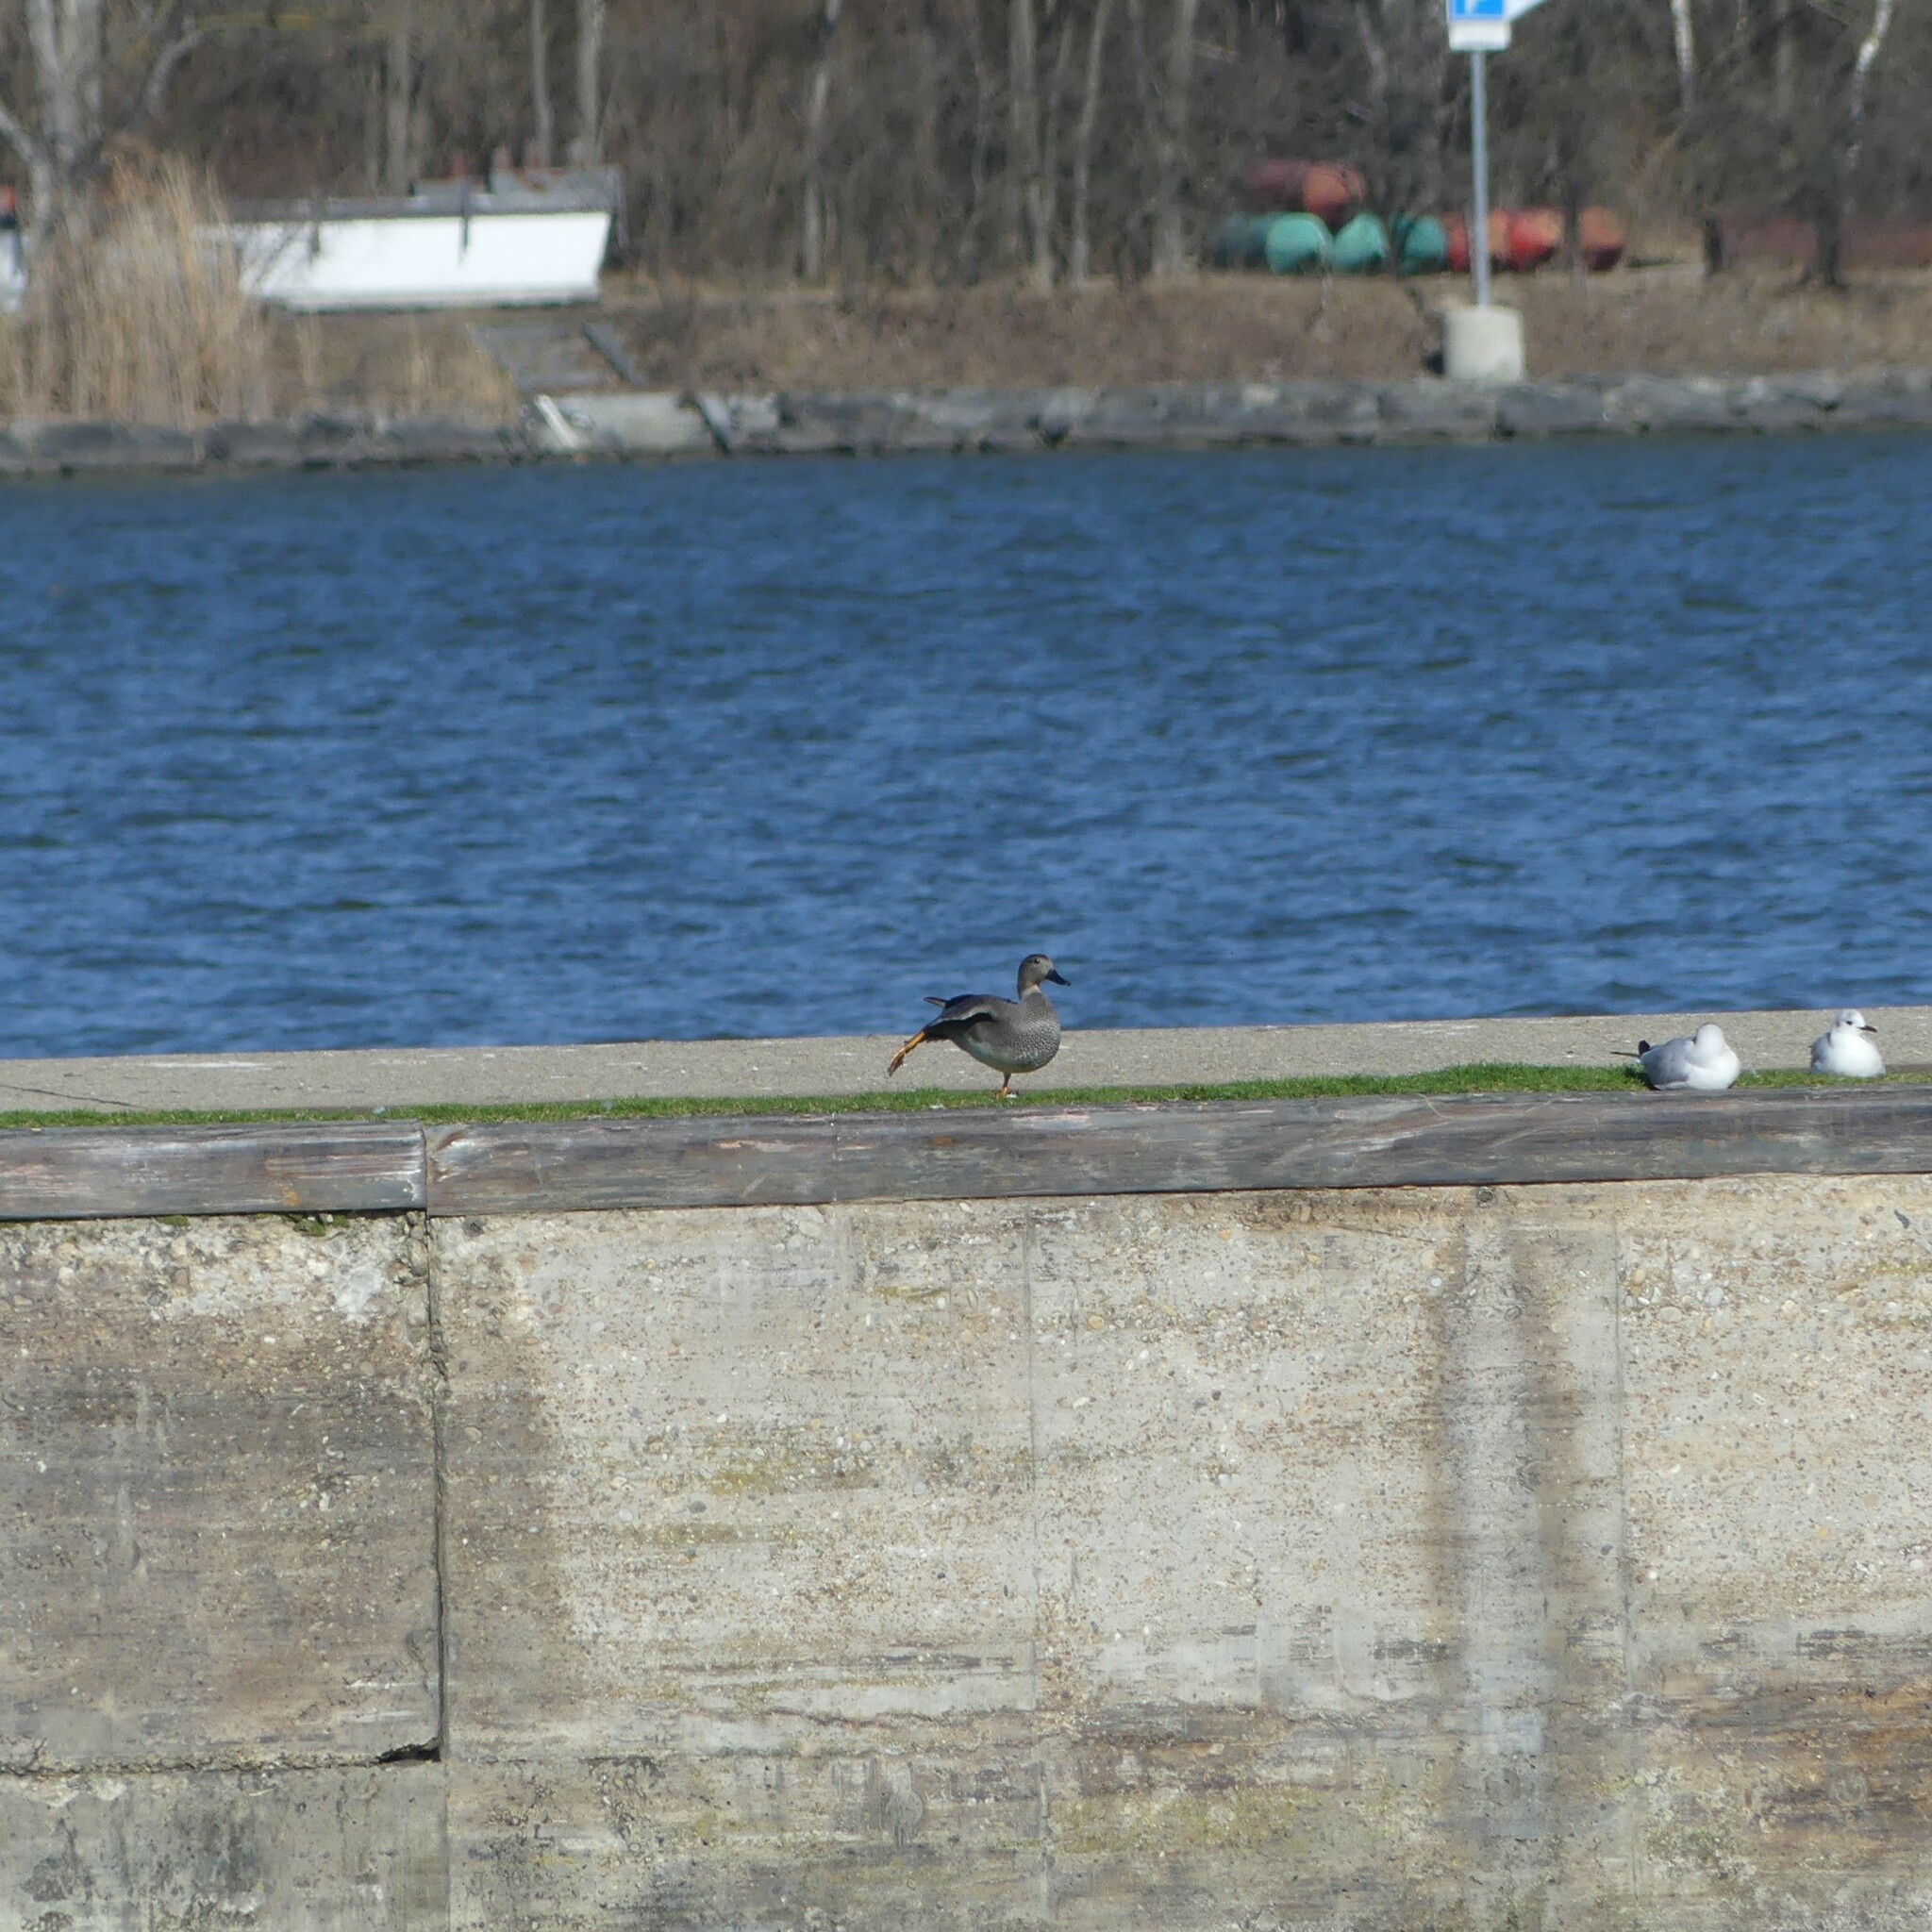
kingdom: Animalia
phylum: Chordata
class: Aves
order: Anseriformes
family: Anatidae
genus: Mareca
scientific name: Mareca strepera
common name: Gadwall
